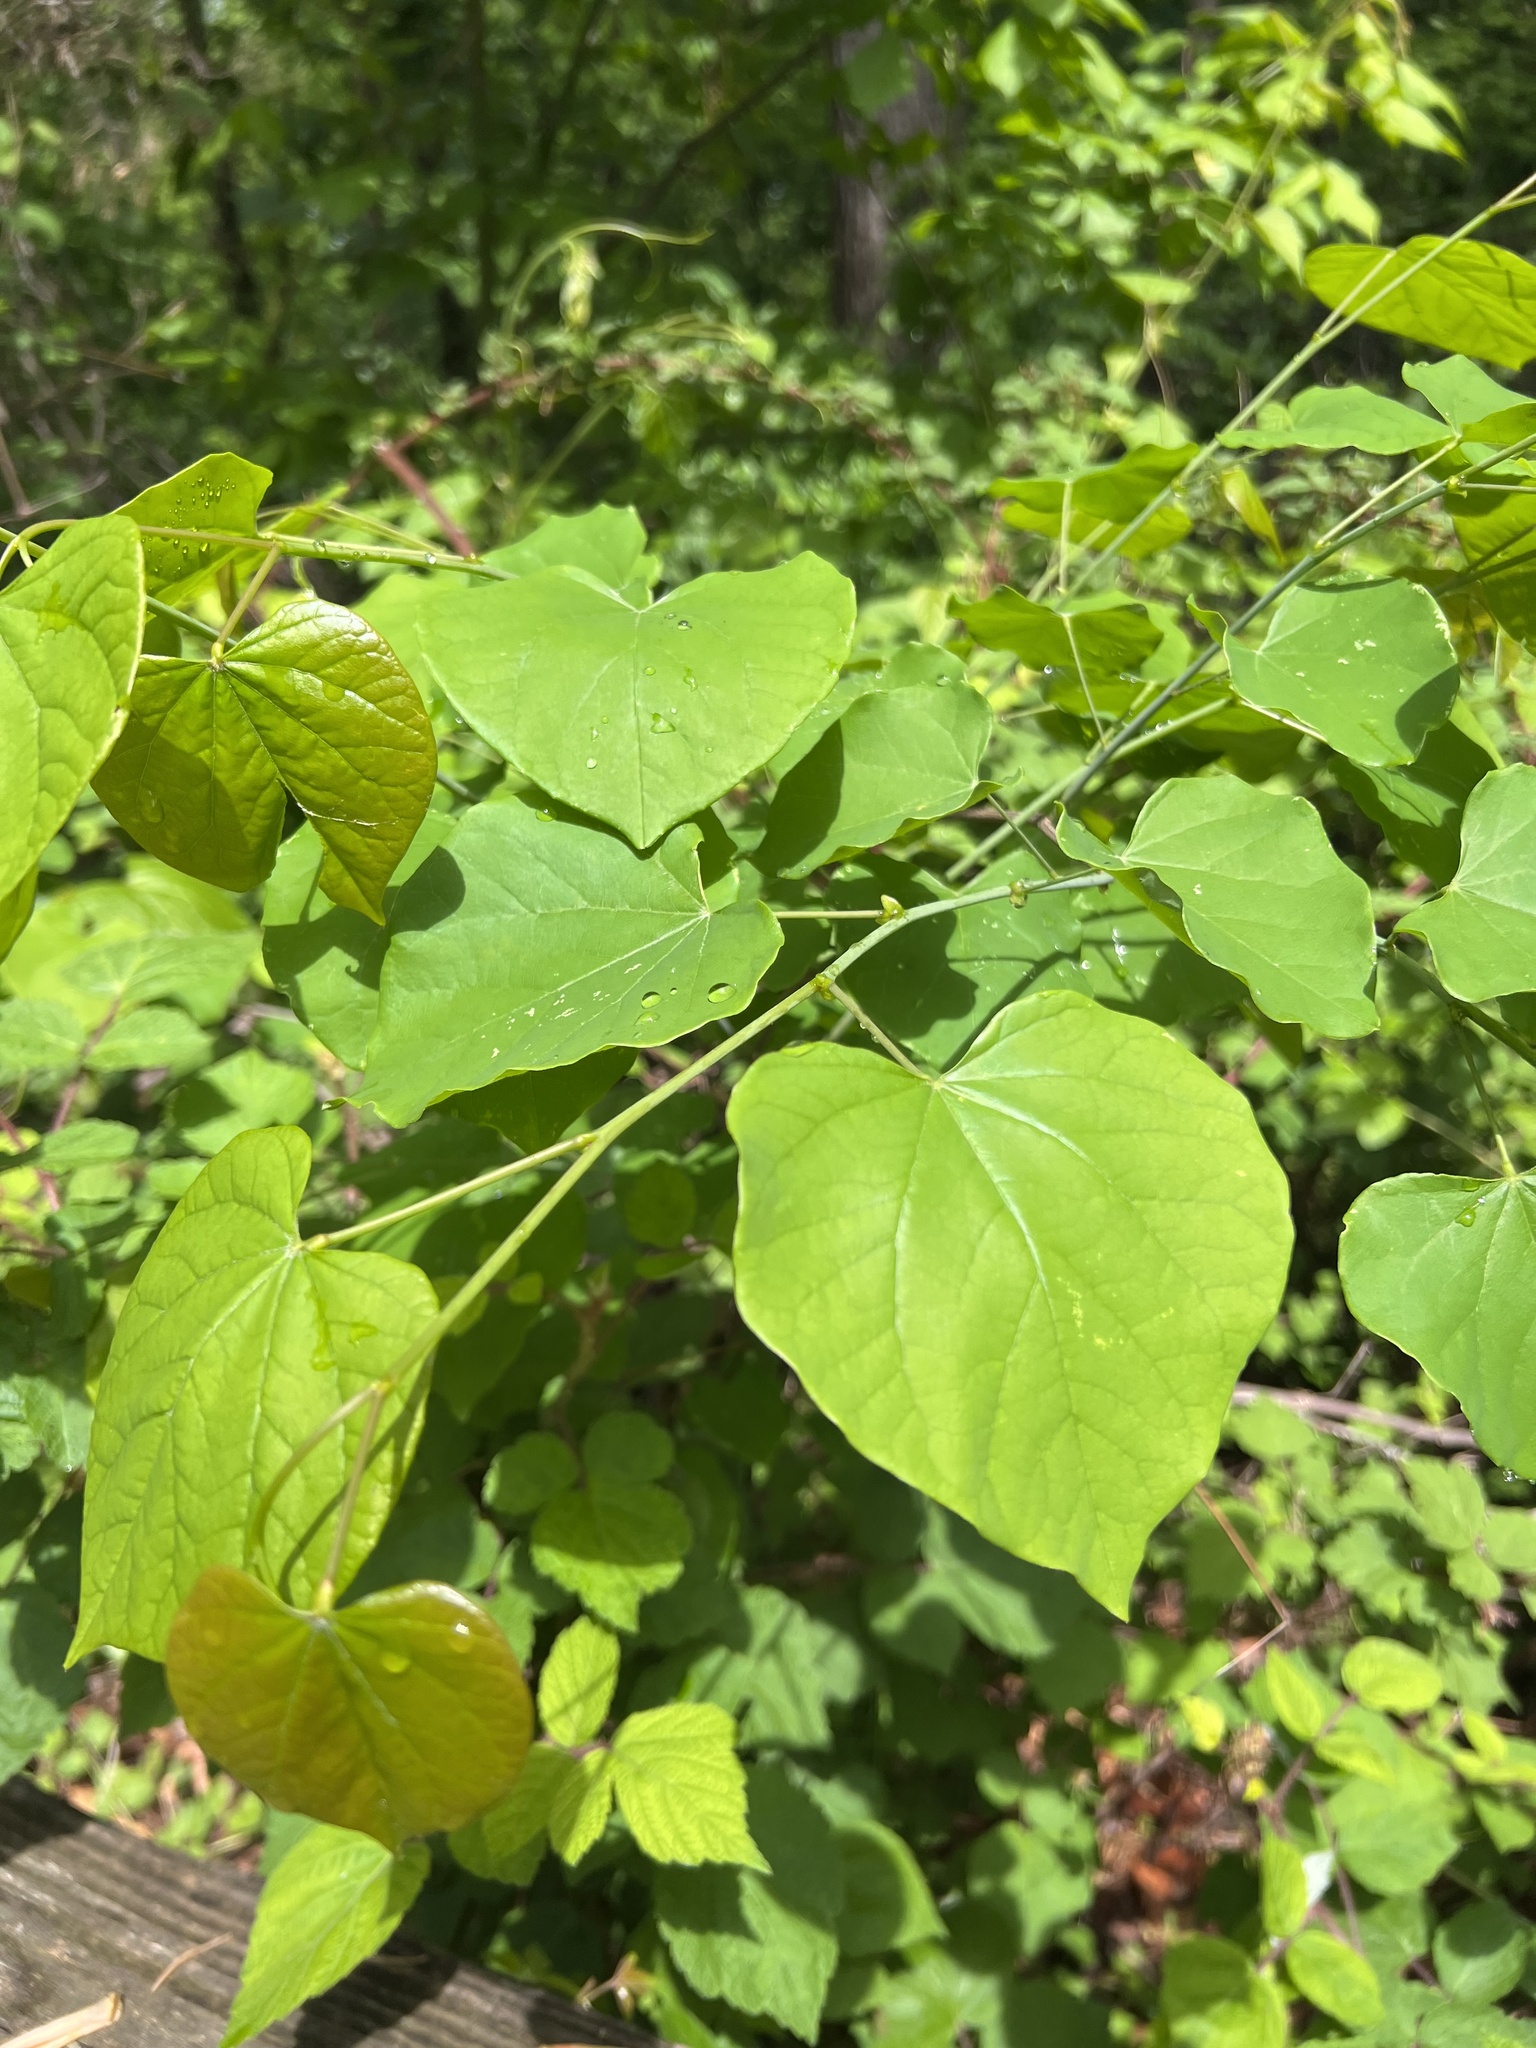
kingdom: Plantae
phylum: Tracheophyta
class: Magnoliopsida
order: Fabales
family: Fabaceae
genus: Cercis
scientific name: Cercis canadensis
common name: Eastern redbud
